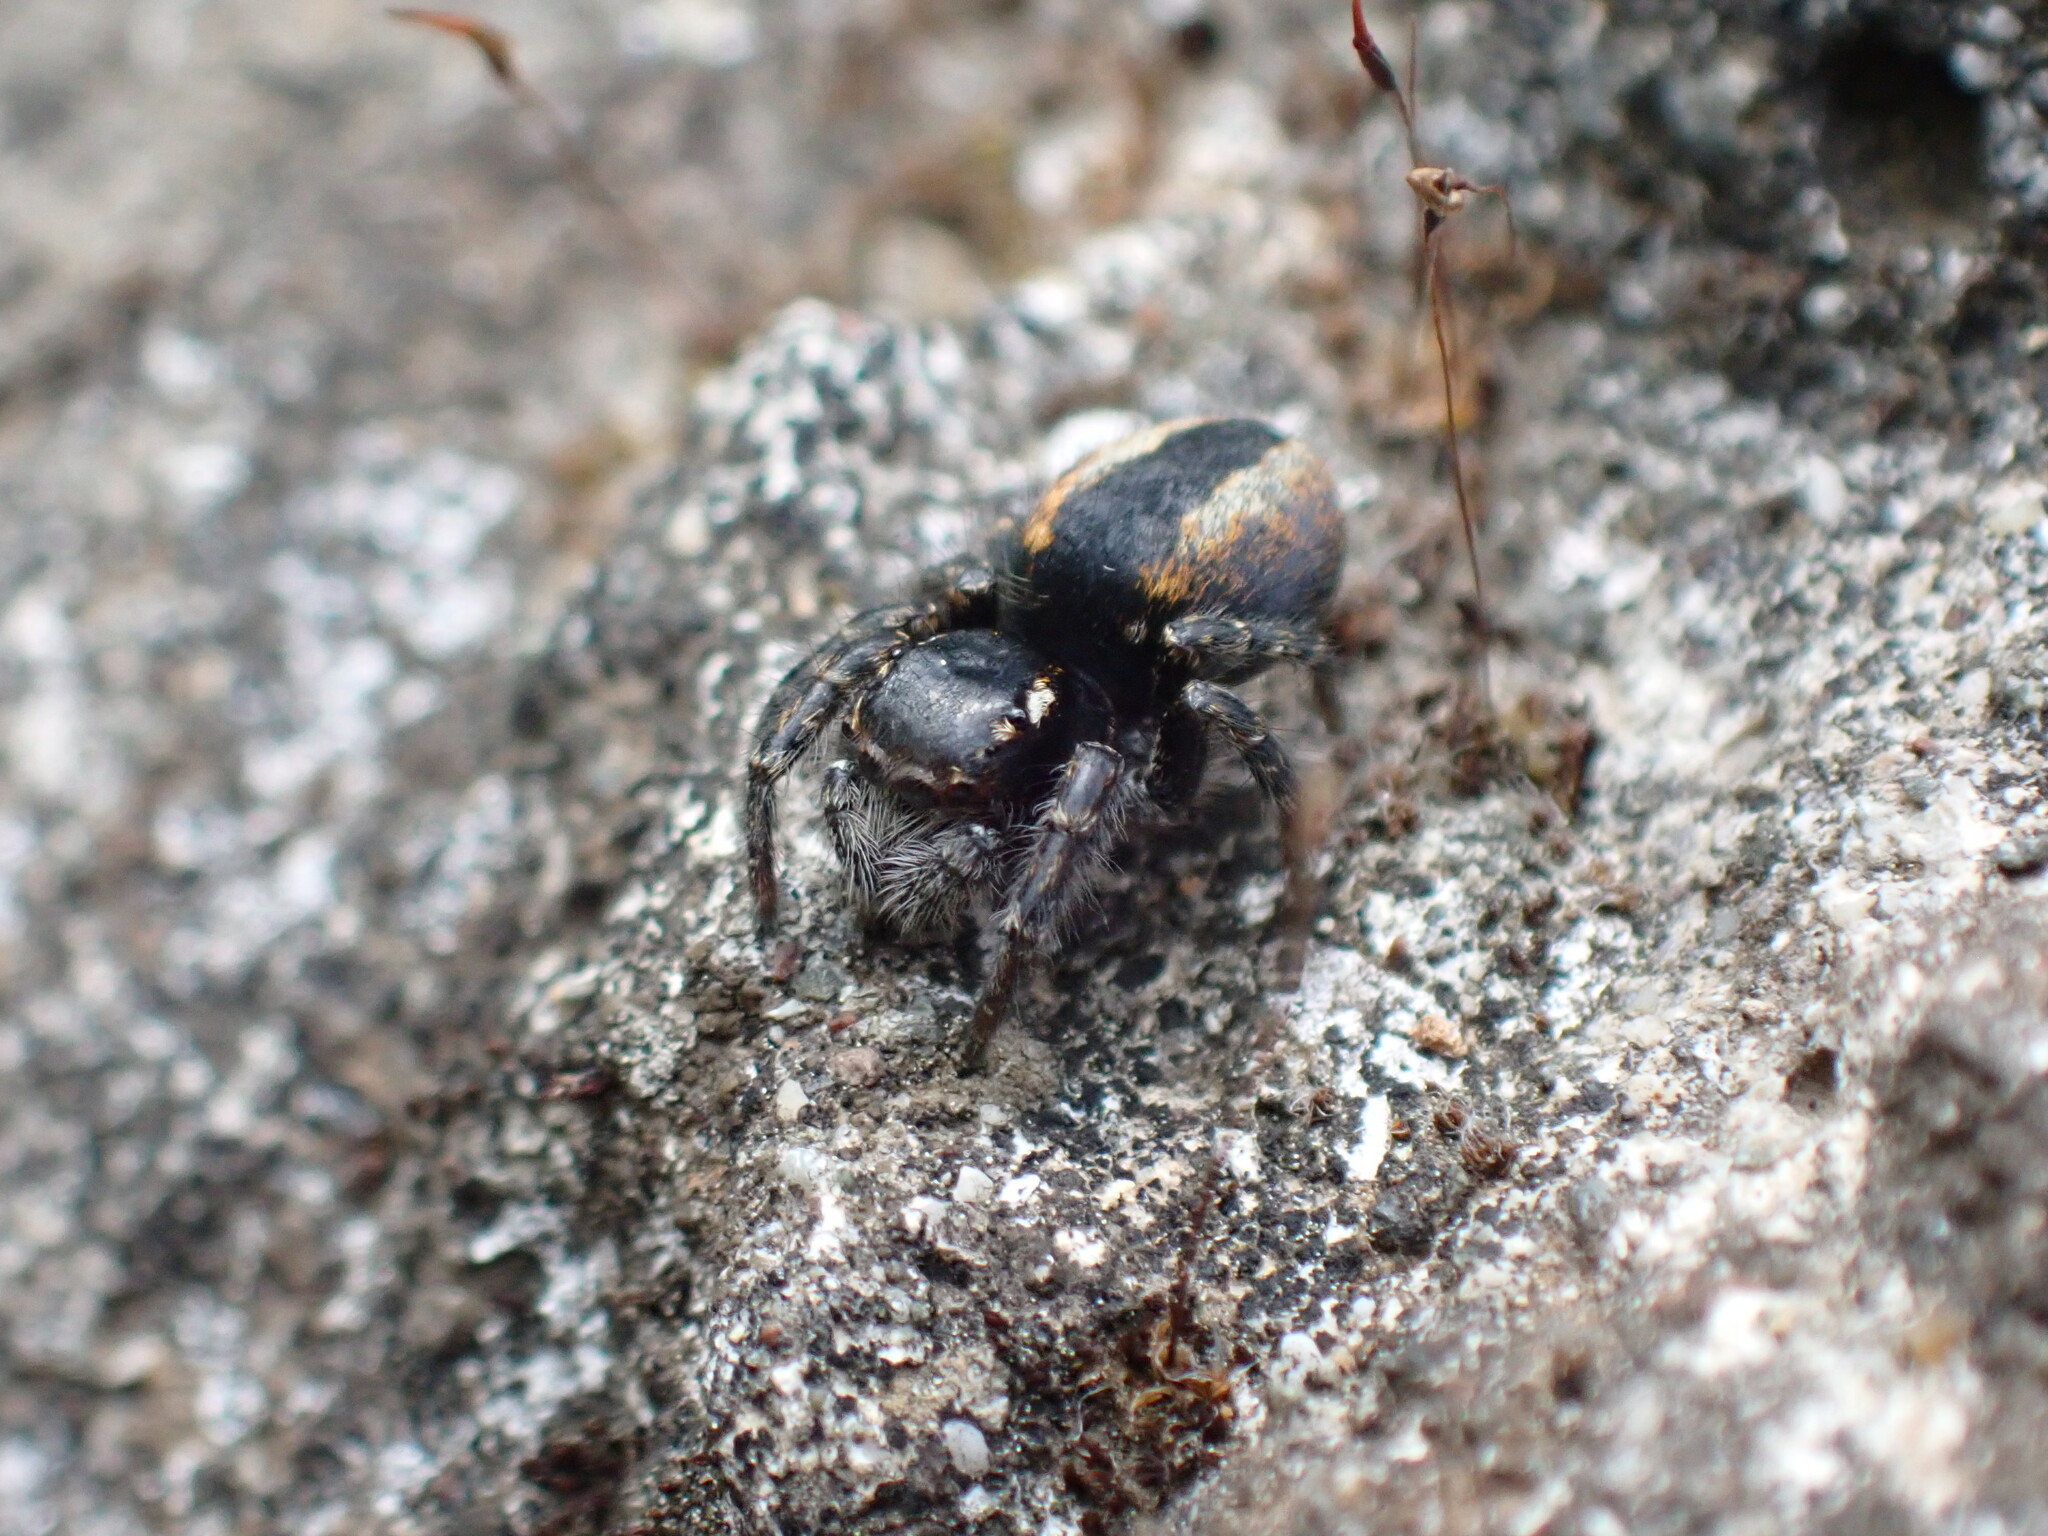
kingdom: Animalia
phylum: Arthropoda
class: Arachnida
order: Araneae
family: Salticidae
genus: Philaeus
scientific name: Philaeus chrysops
